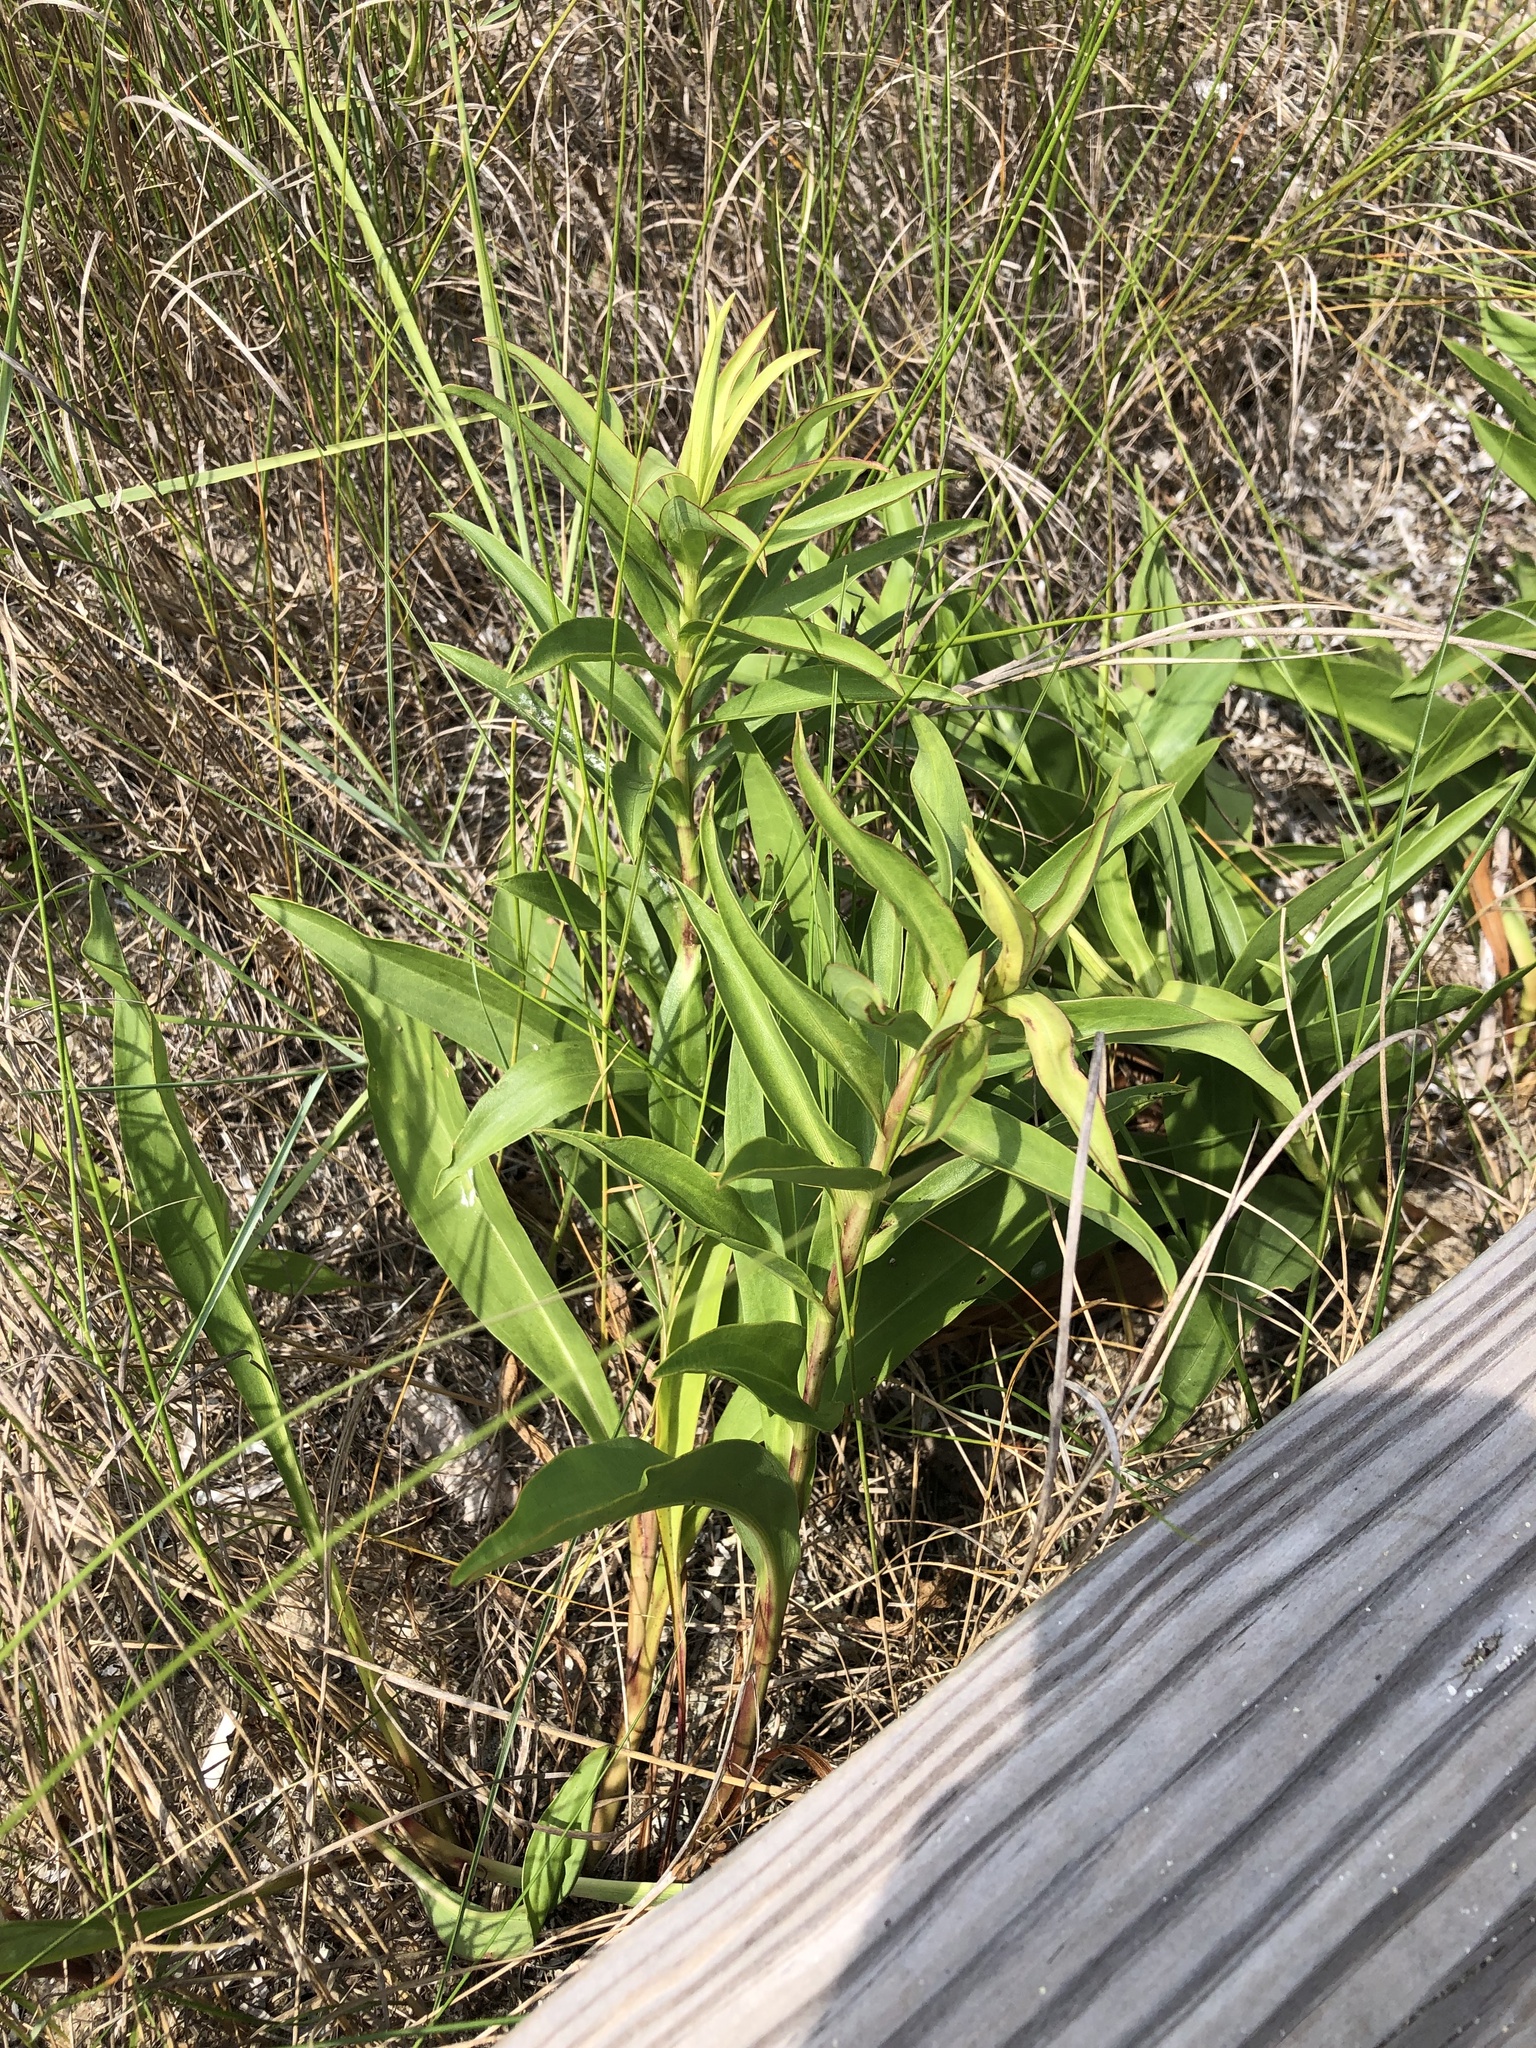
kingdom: Plantae
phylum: Tracheophyta
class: Magnoliopsida
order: Asterales
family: Asteraceae
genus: Solidago
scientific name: Solidago sempervirens
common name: Salt-marsh goldenrod
